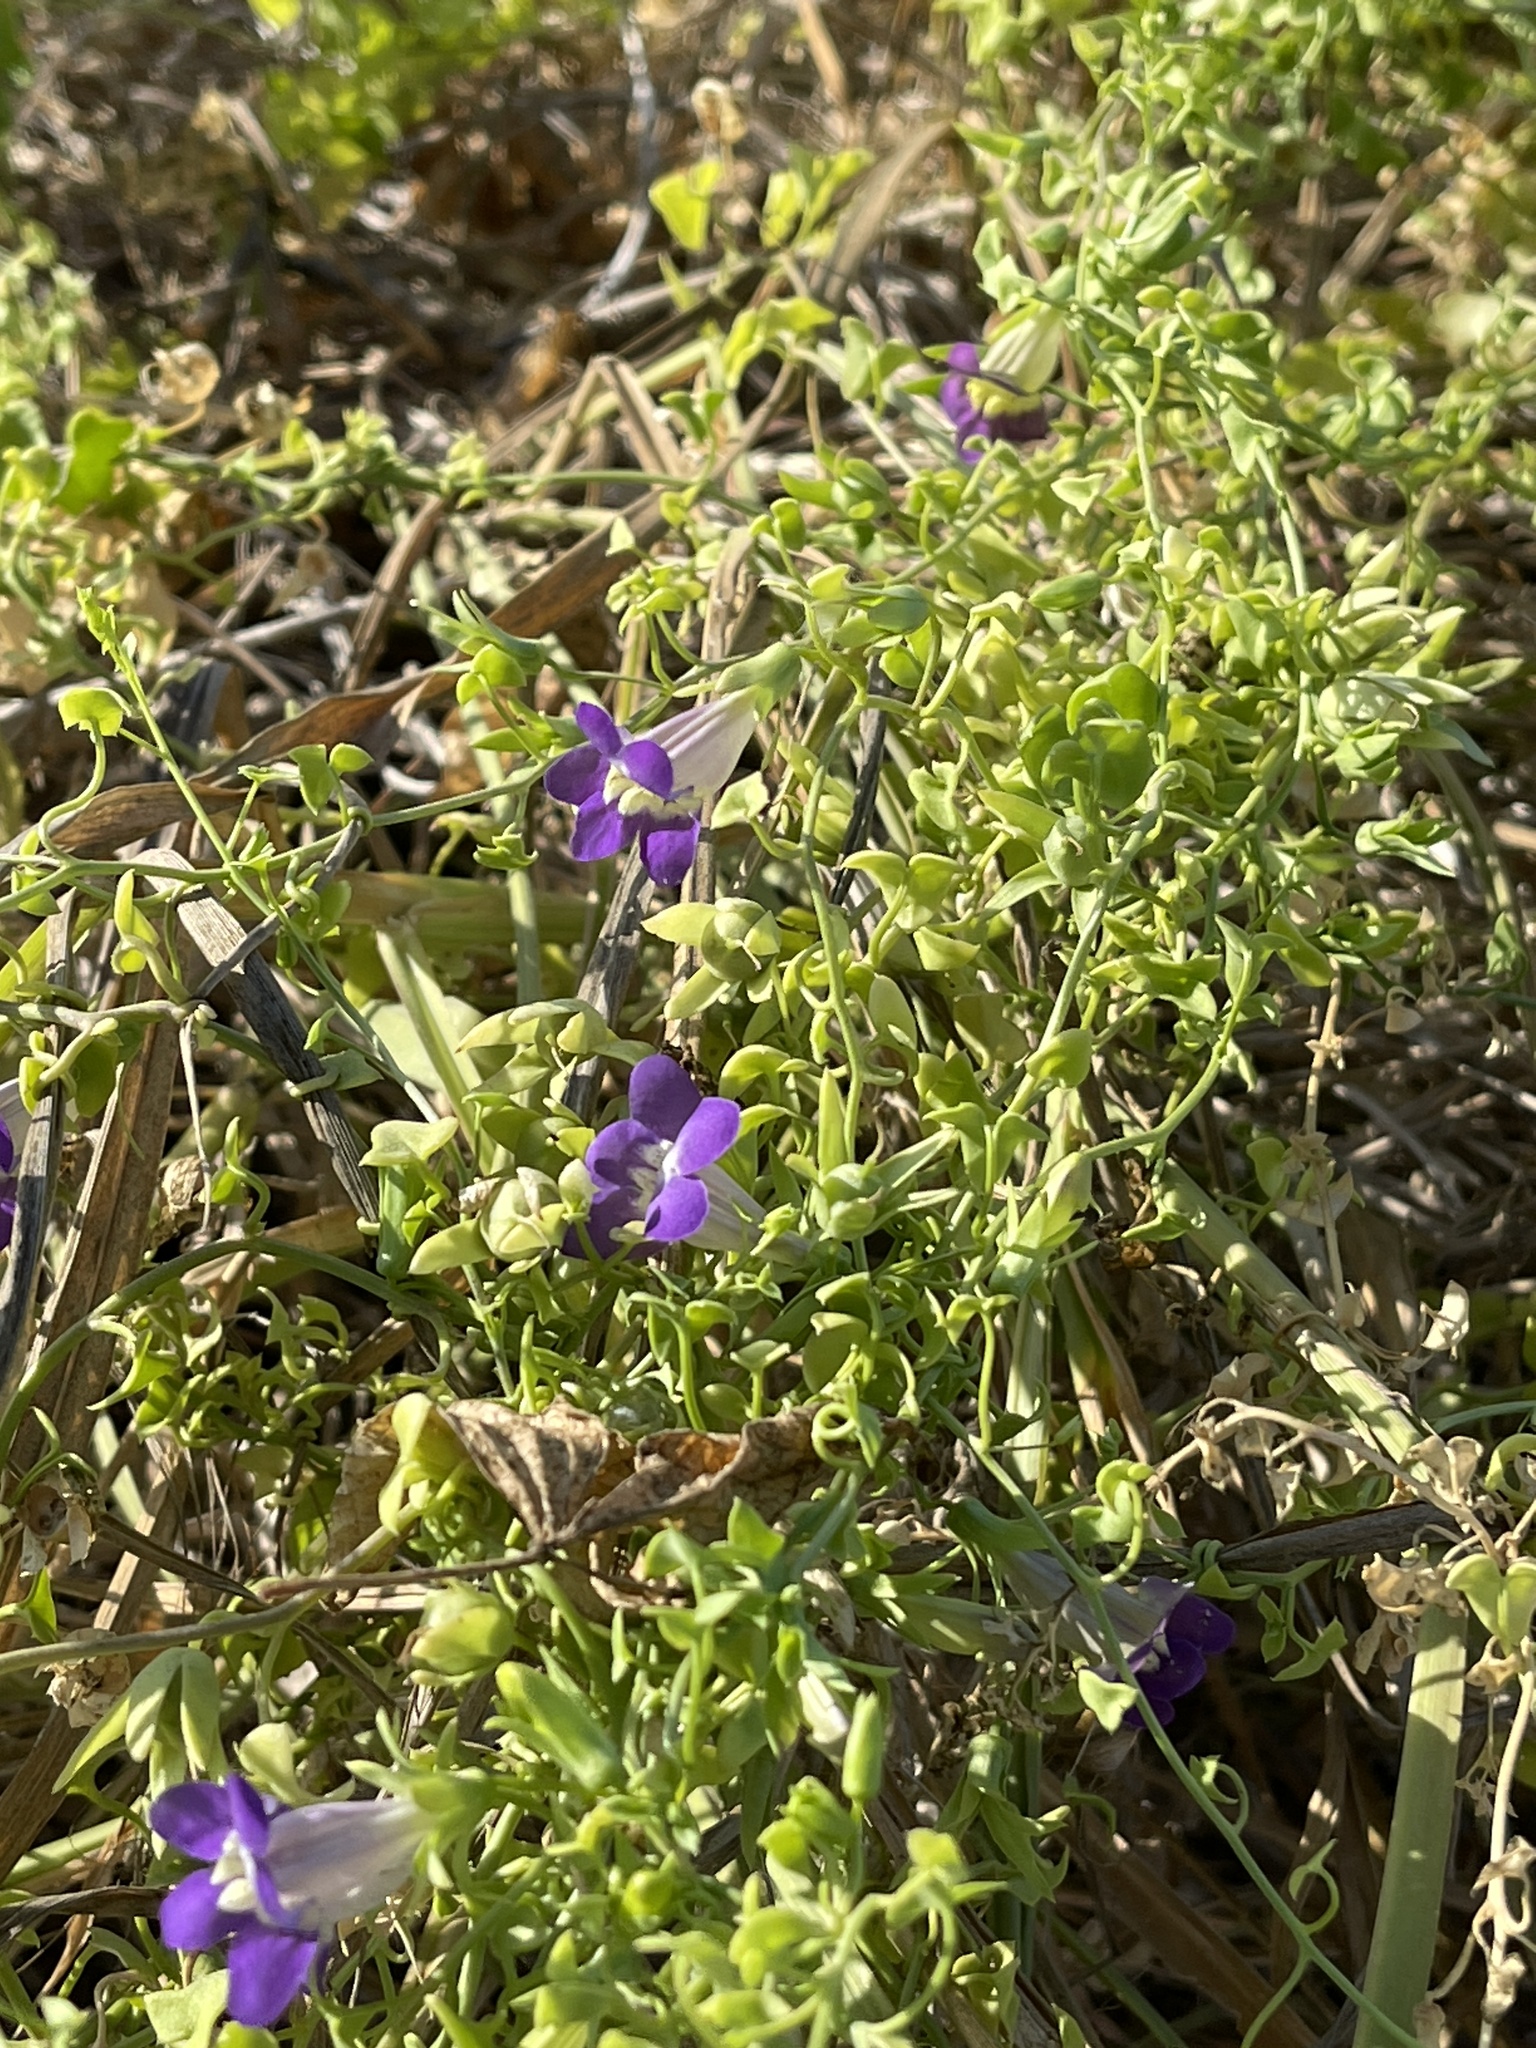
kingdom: Plantae
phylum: Tracheophyta
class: Magnoliopsida
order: Lamiales
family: Plantaginaceae
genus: Maurandella
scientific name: Maurandella antirrhiniflora
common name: Violet twining-snapdragon
